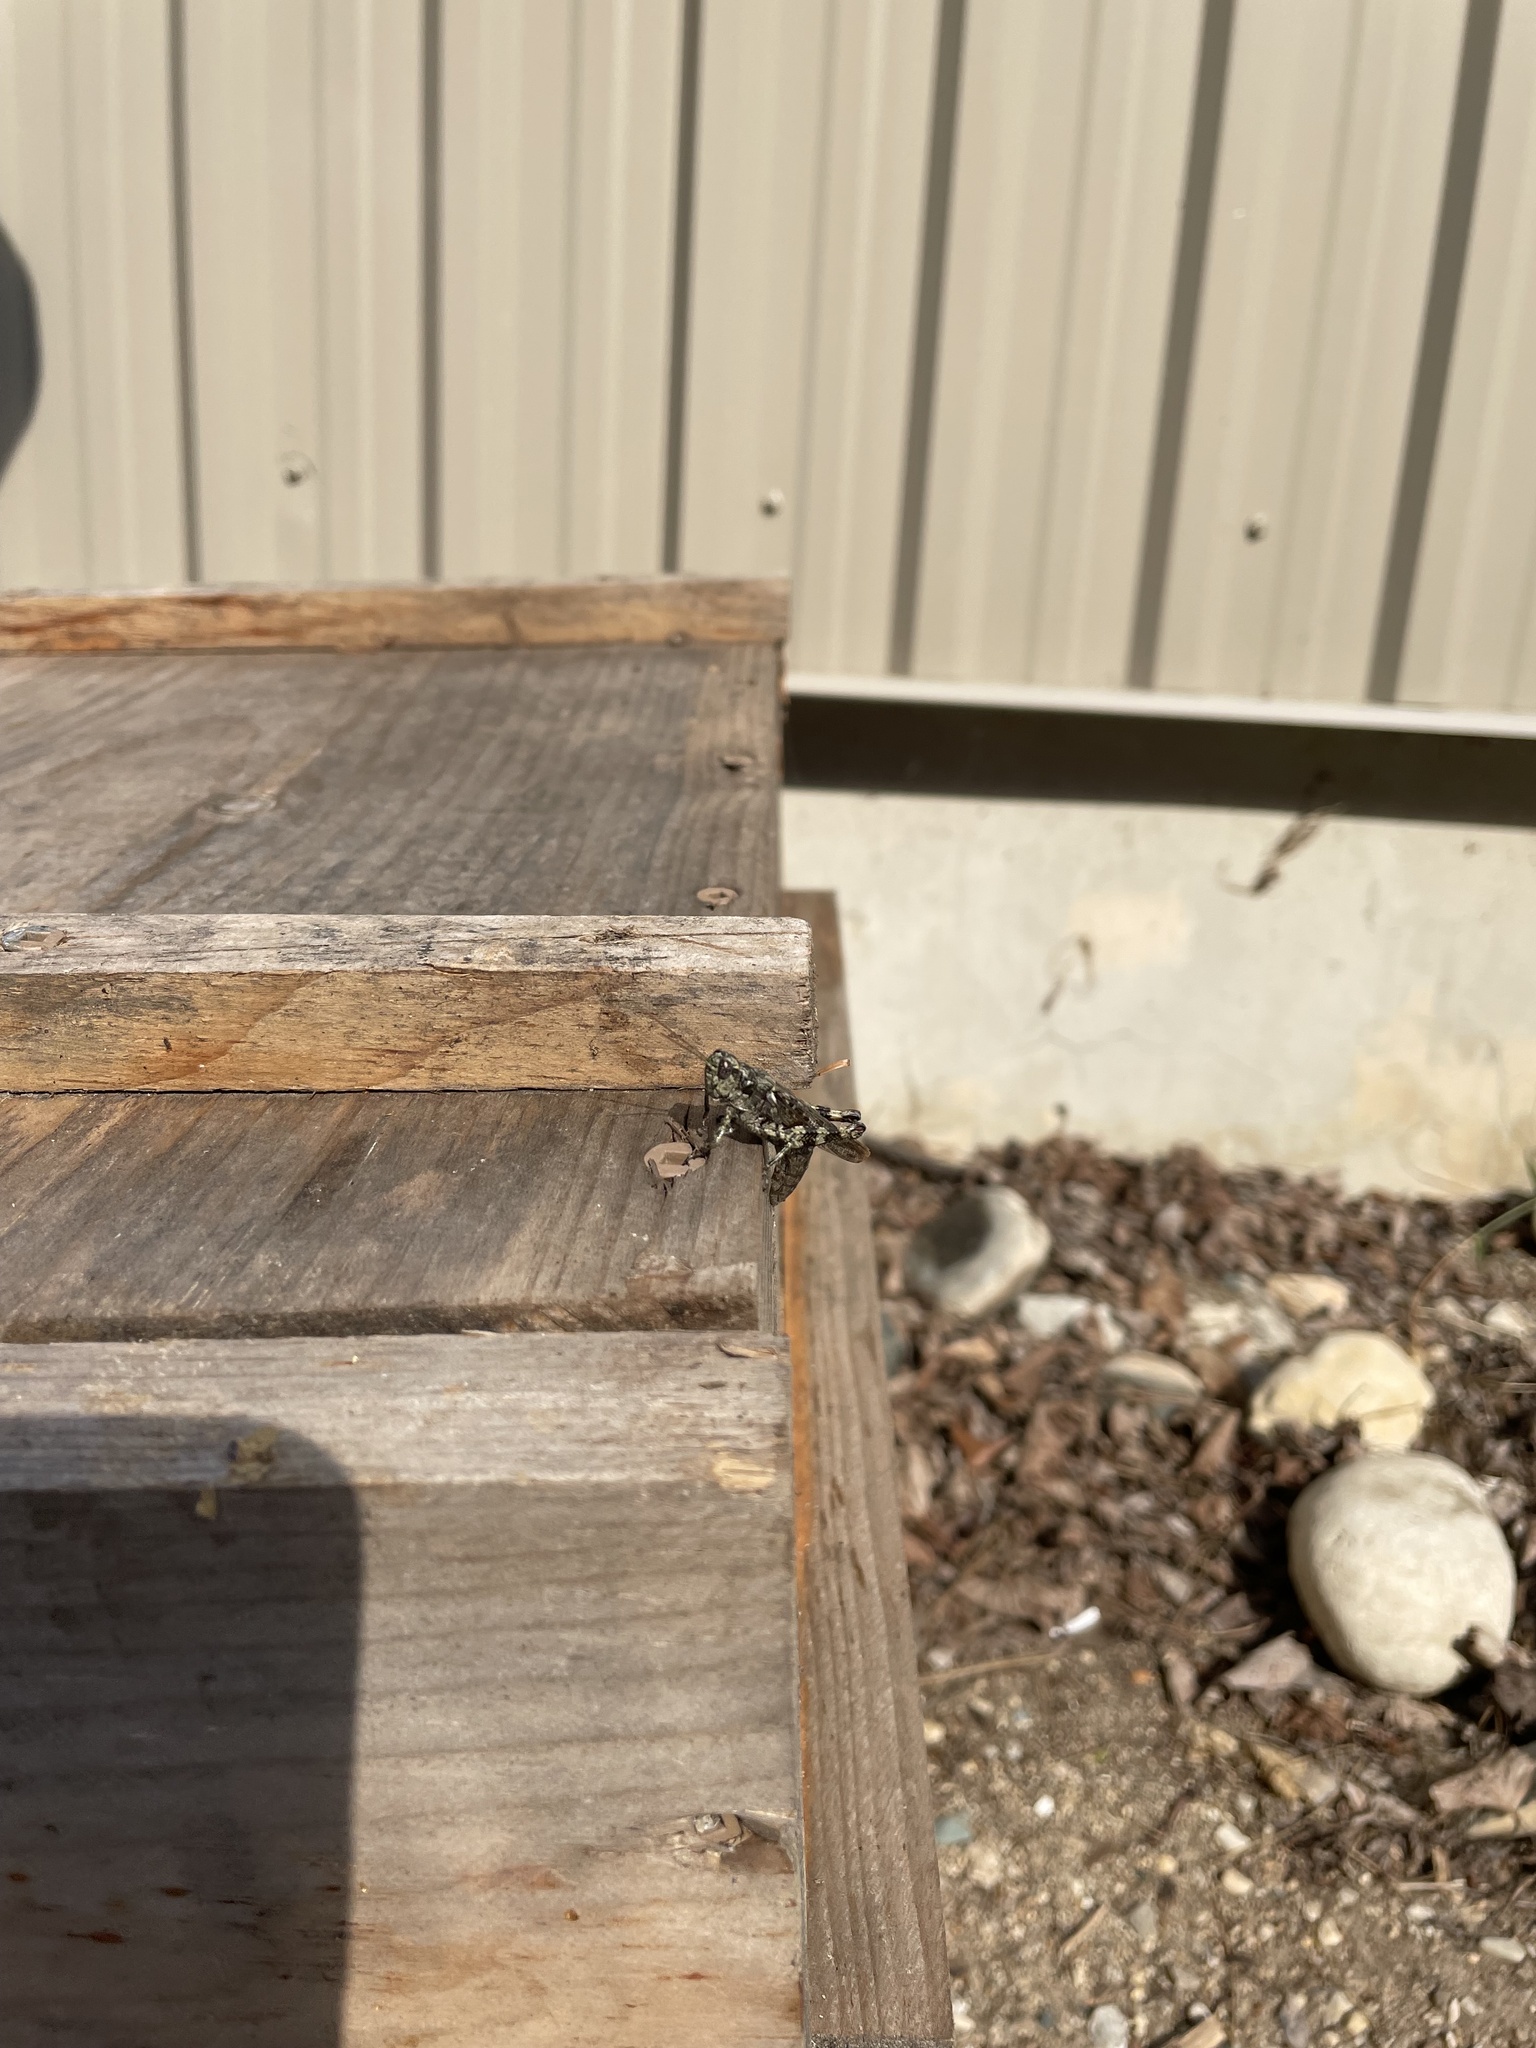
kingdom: Animalia
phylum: Arthropoda
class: Insecta
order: Orthoptera
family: Acrididae
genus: Melanoplus
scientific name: Melanoplus punctulatus
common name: Pine-tree spur-throat grasshopper
